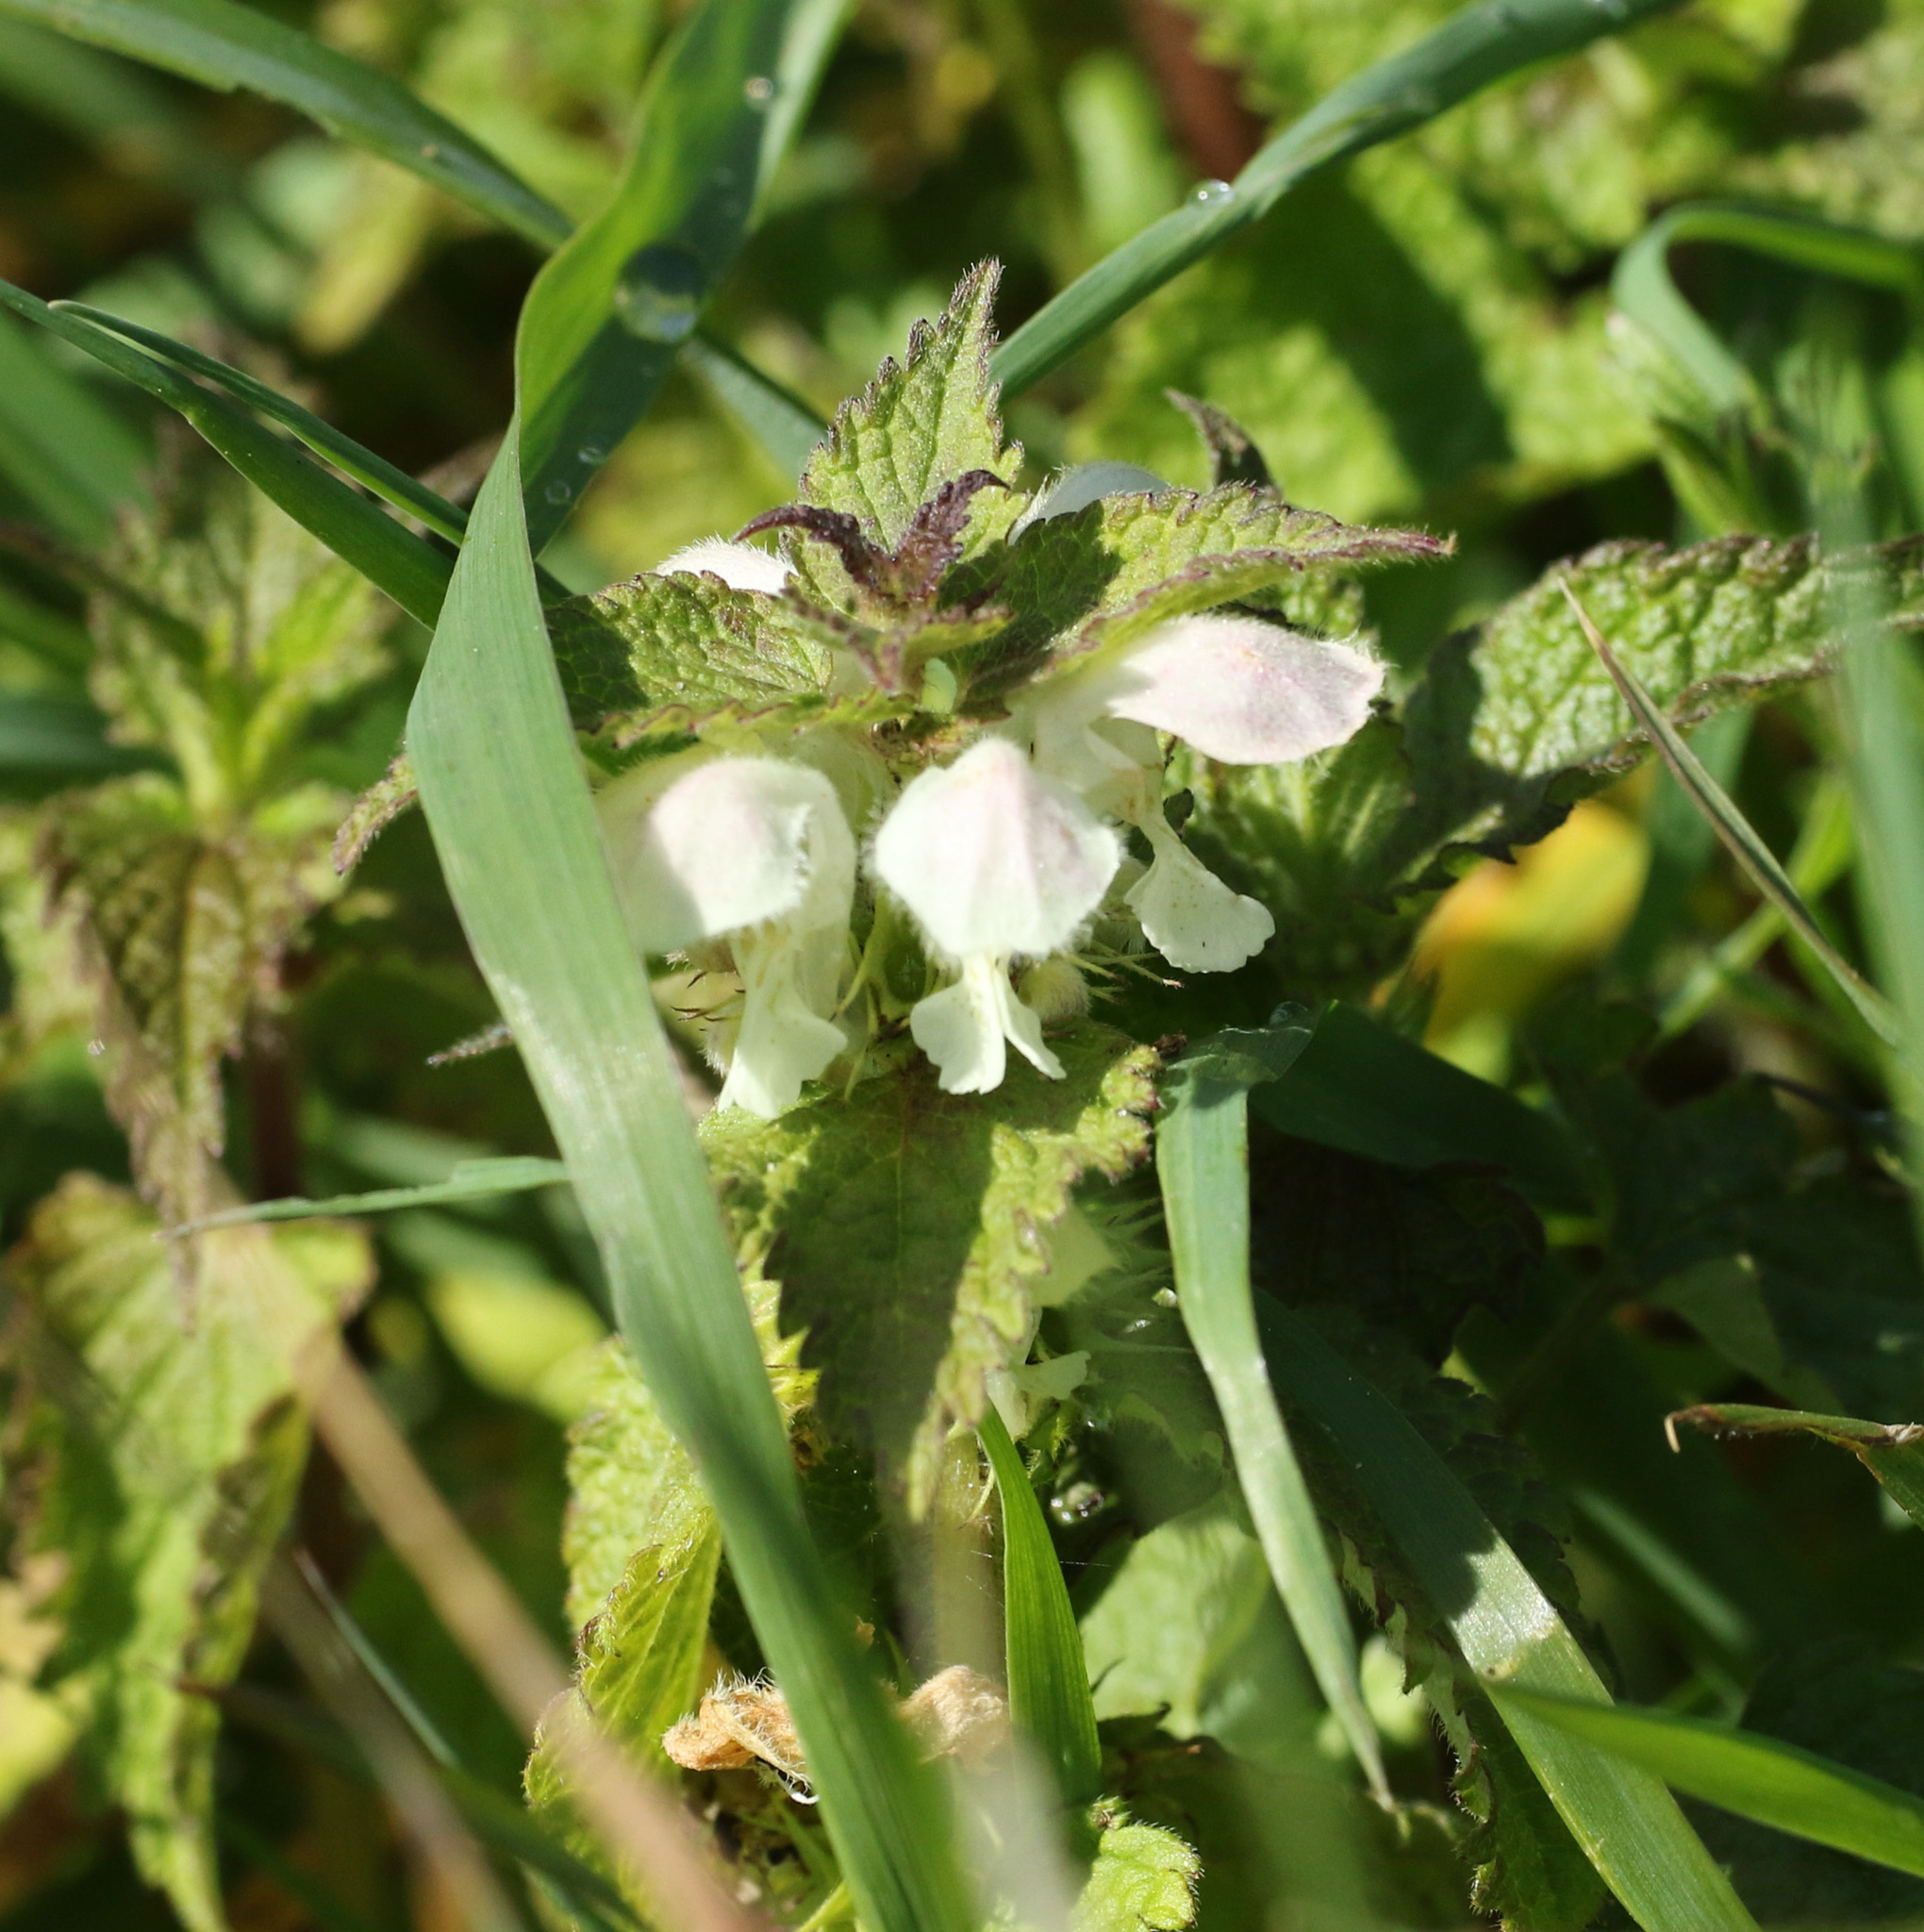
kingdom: Plantae
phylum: Tracheophyta
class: Magnoliopsida
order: Lamiales
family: Lamiaceae
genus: Lamium
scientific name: Lamium album
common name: White dead-nettle
